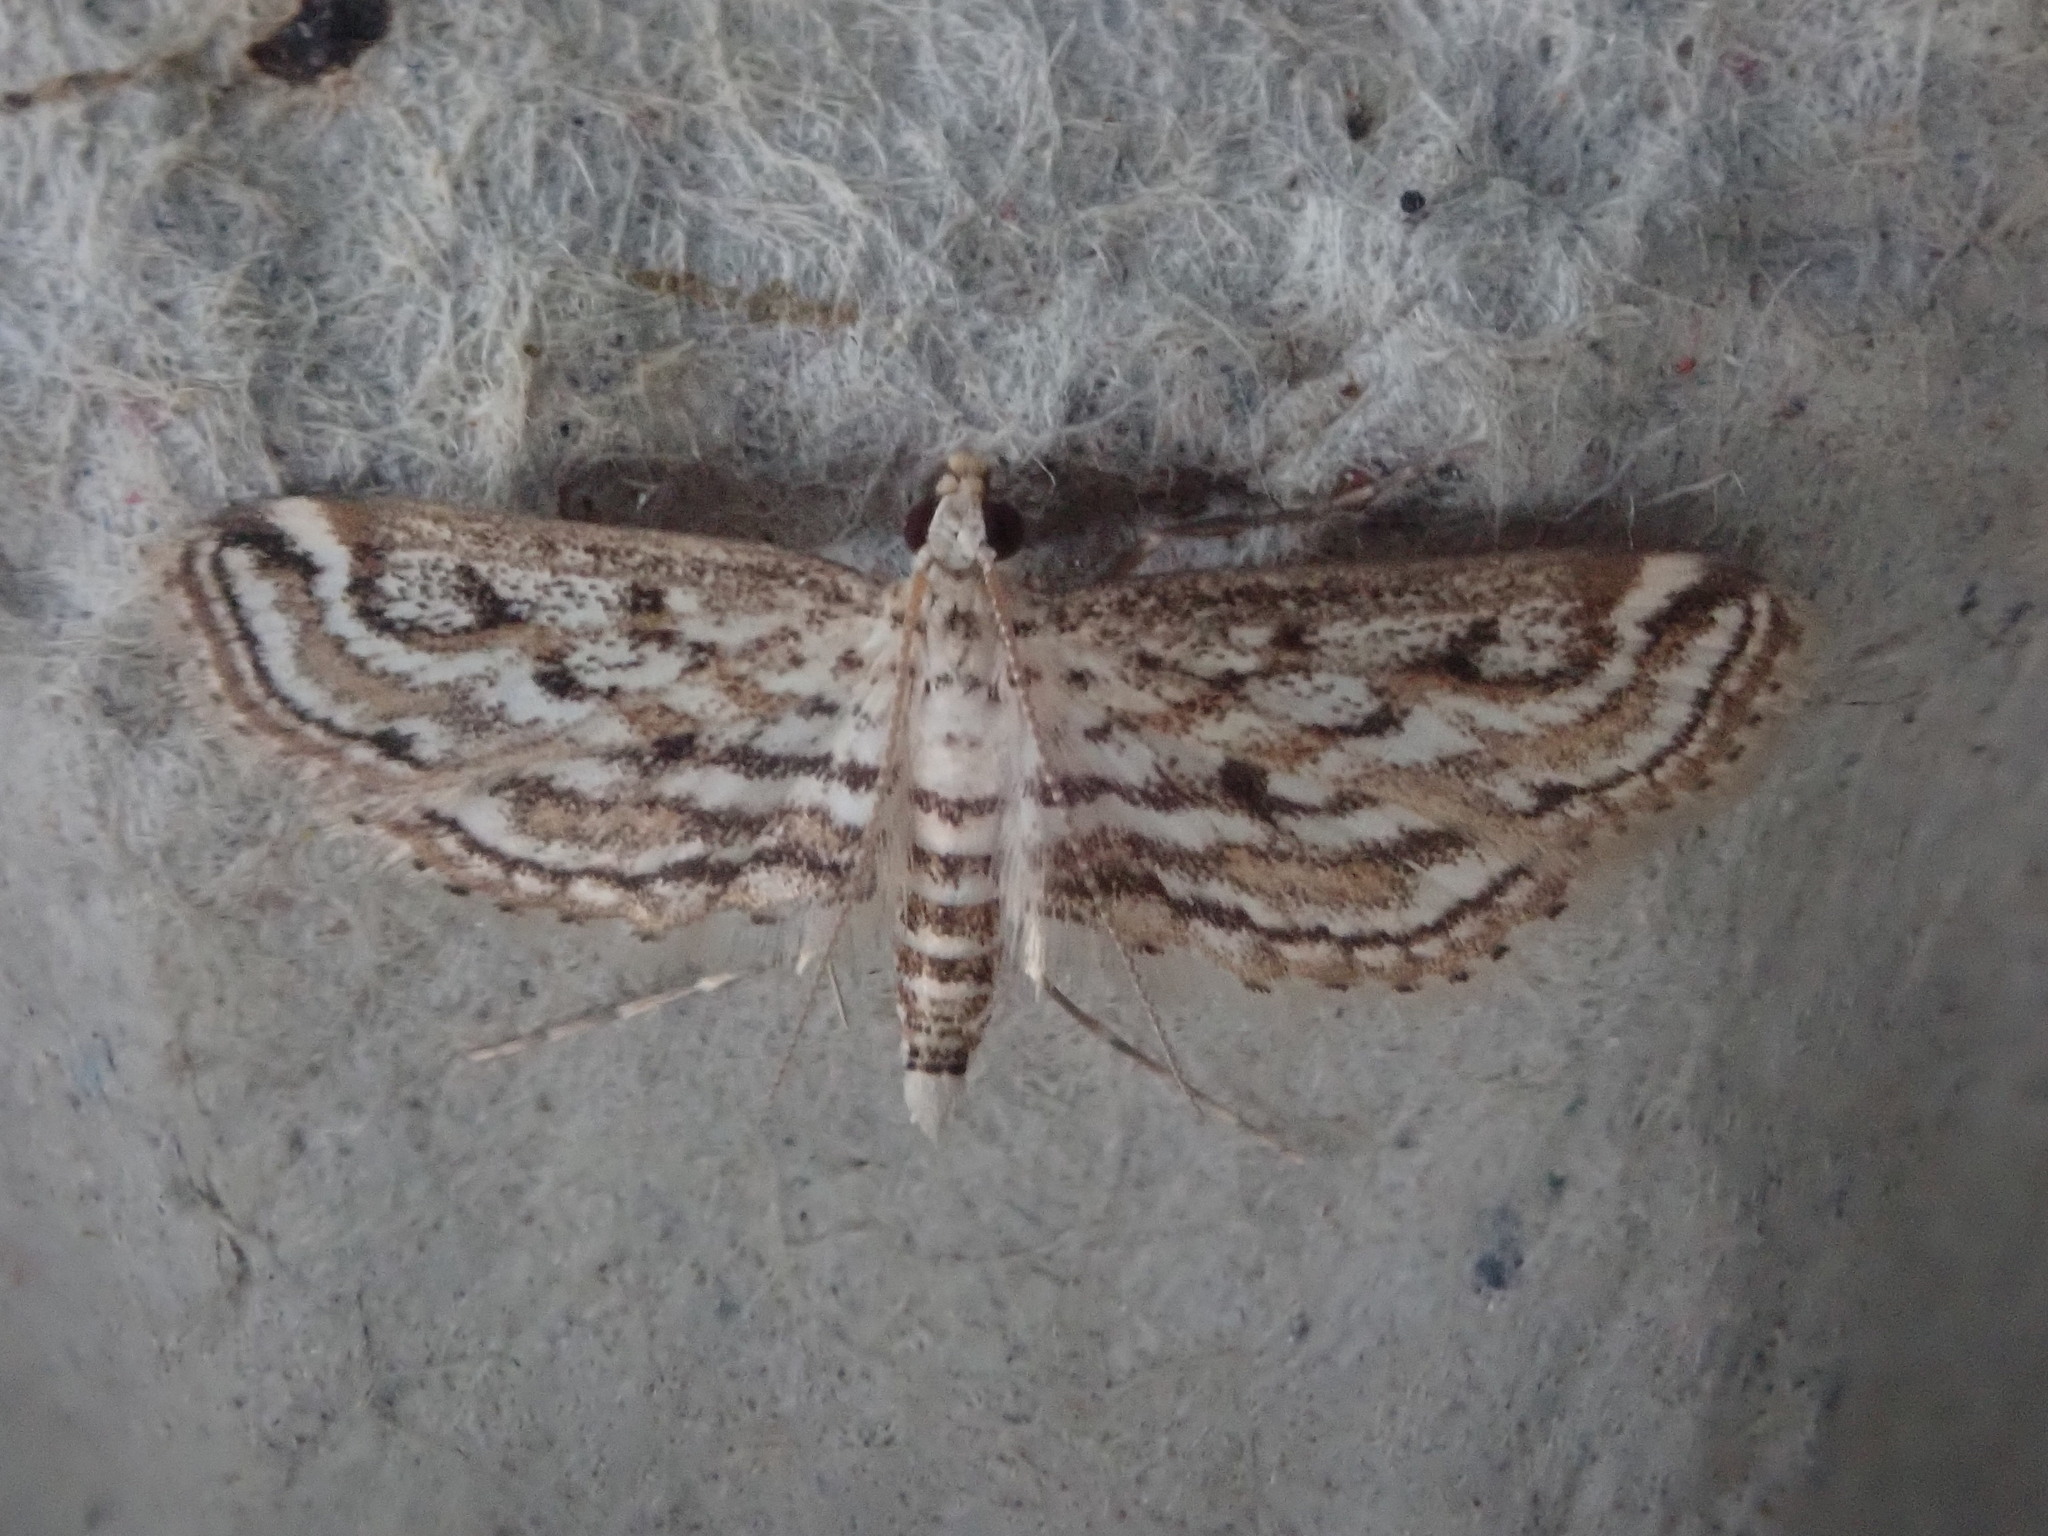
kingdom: Animalia
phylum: Arthropoda
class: Insecta
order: Lepidoptera
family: Crambidae
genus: Parapoynx
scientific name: Parapoynx allionealis
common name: Bladderwort casemaker
